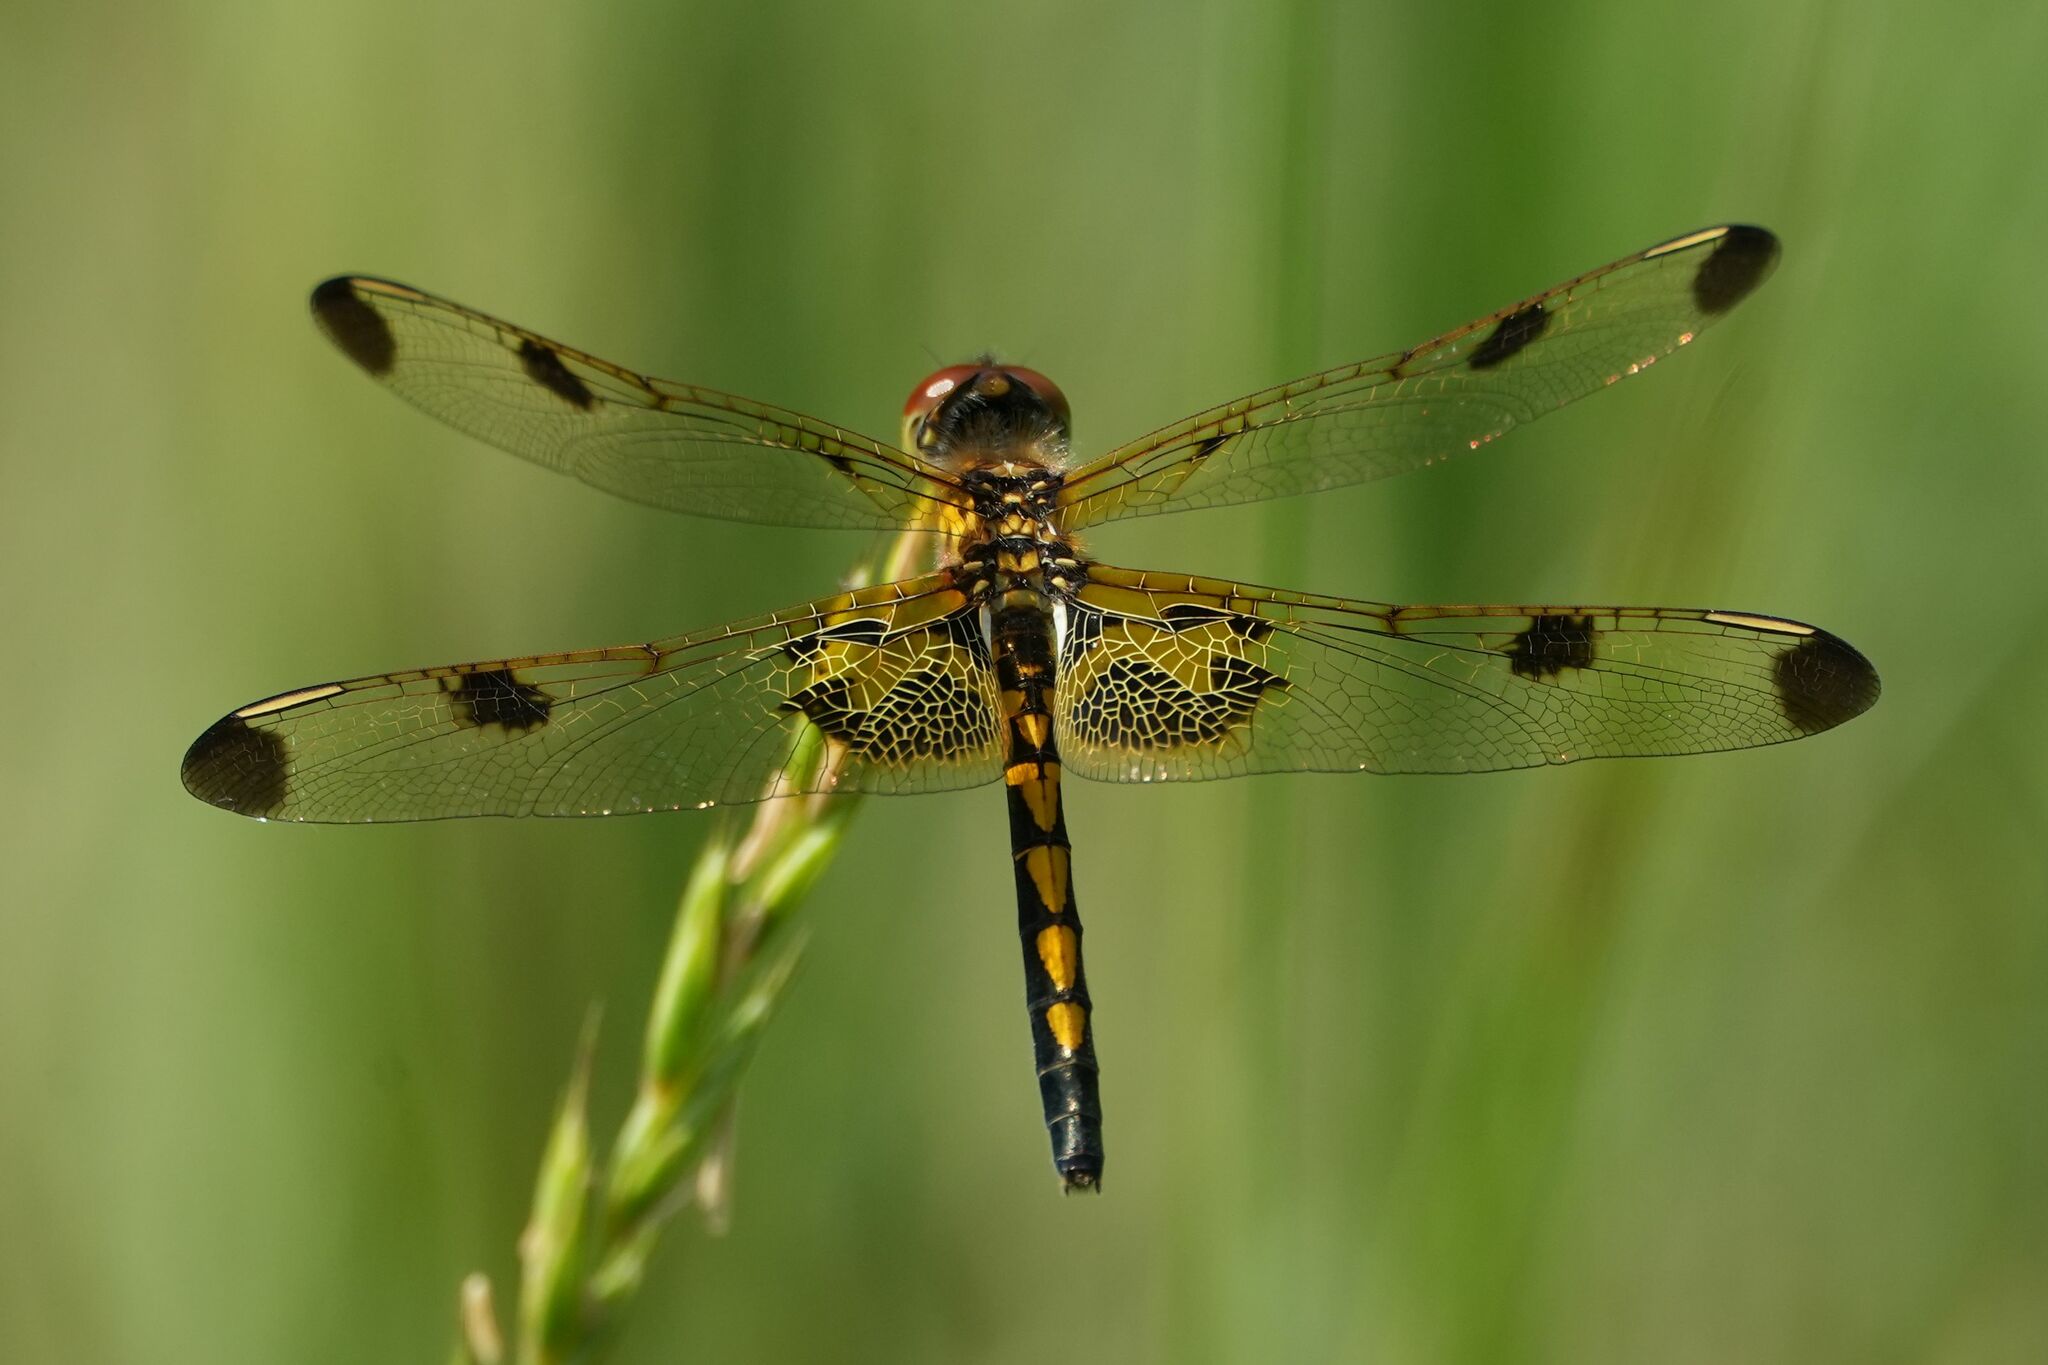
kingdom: Animalia
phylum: Arthropoda
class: Insecta
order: Odonata
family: Libellulidae
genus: Celithemis
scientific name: Celithemis elisa
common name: Calico pennant
